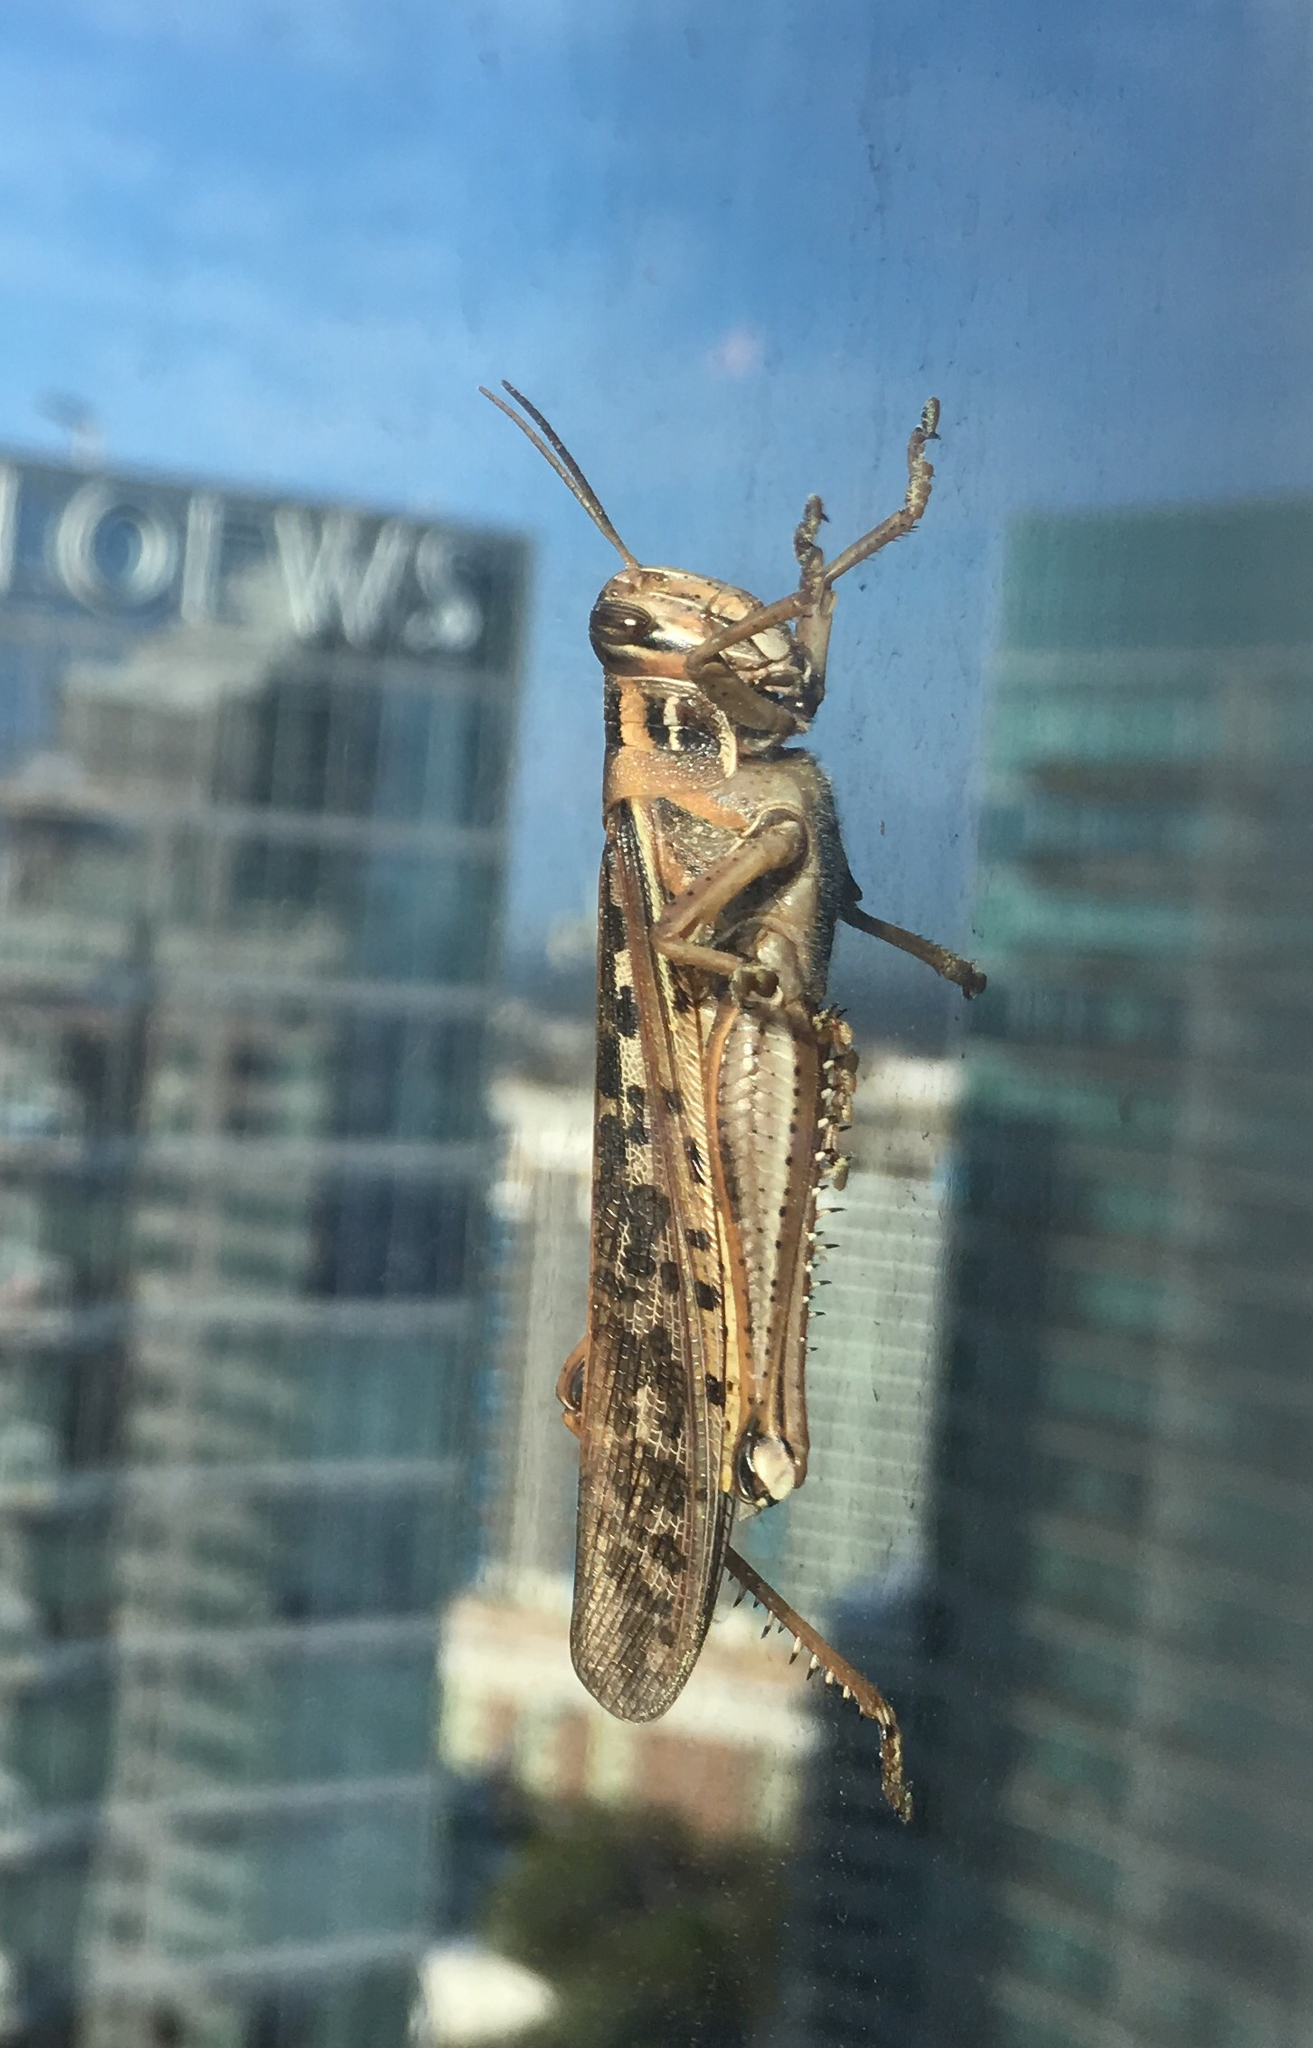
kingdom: Animalia
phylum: Arthropoda
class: Insecta
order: Orthoptera
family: Acrididae
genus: Schistocerca
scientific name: Schistocerca americana
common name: American bird locust
